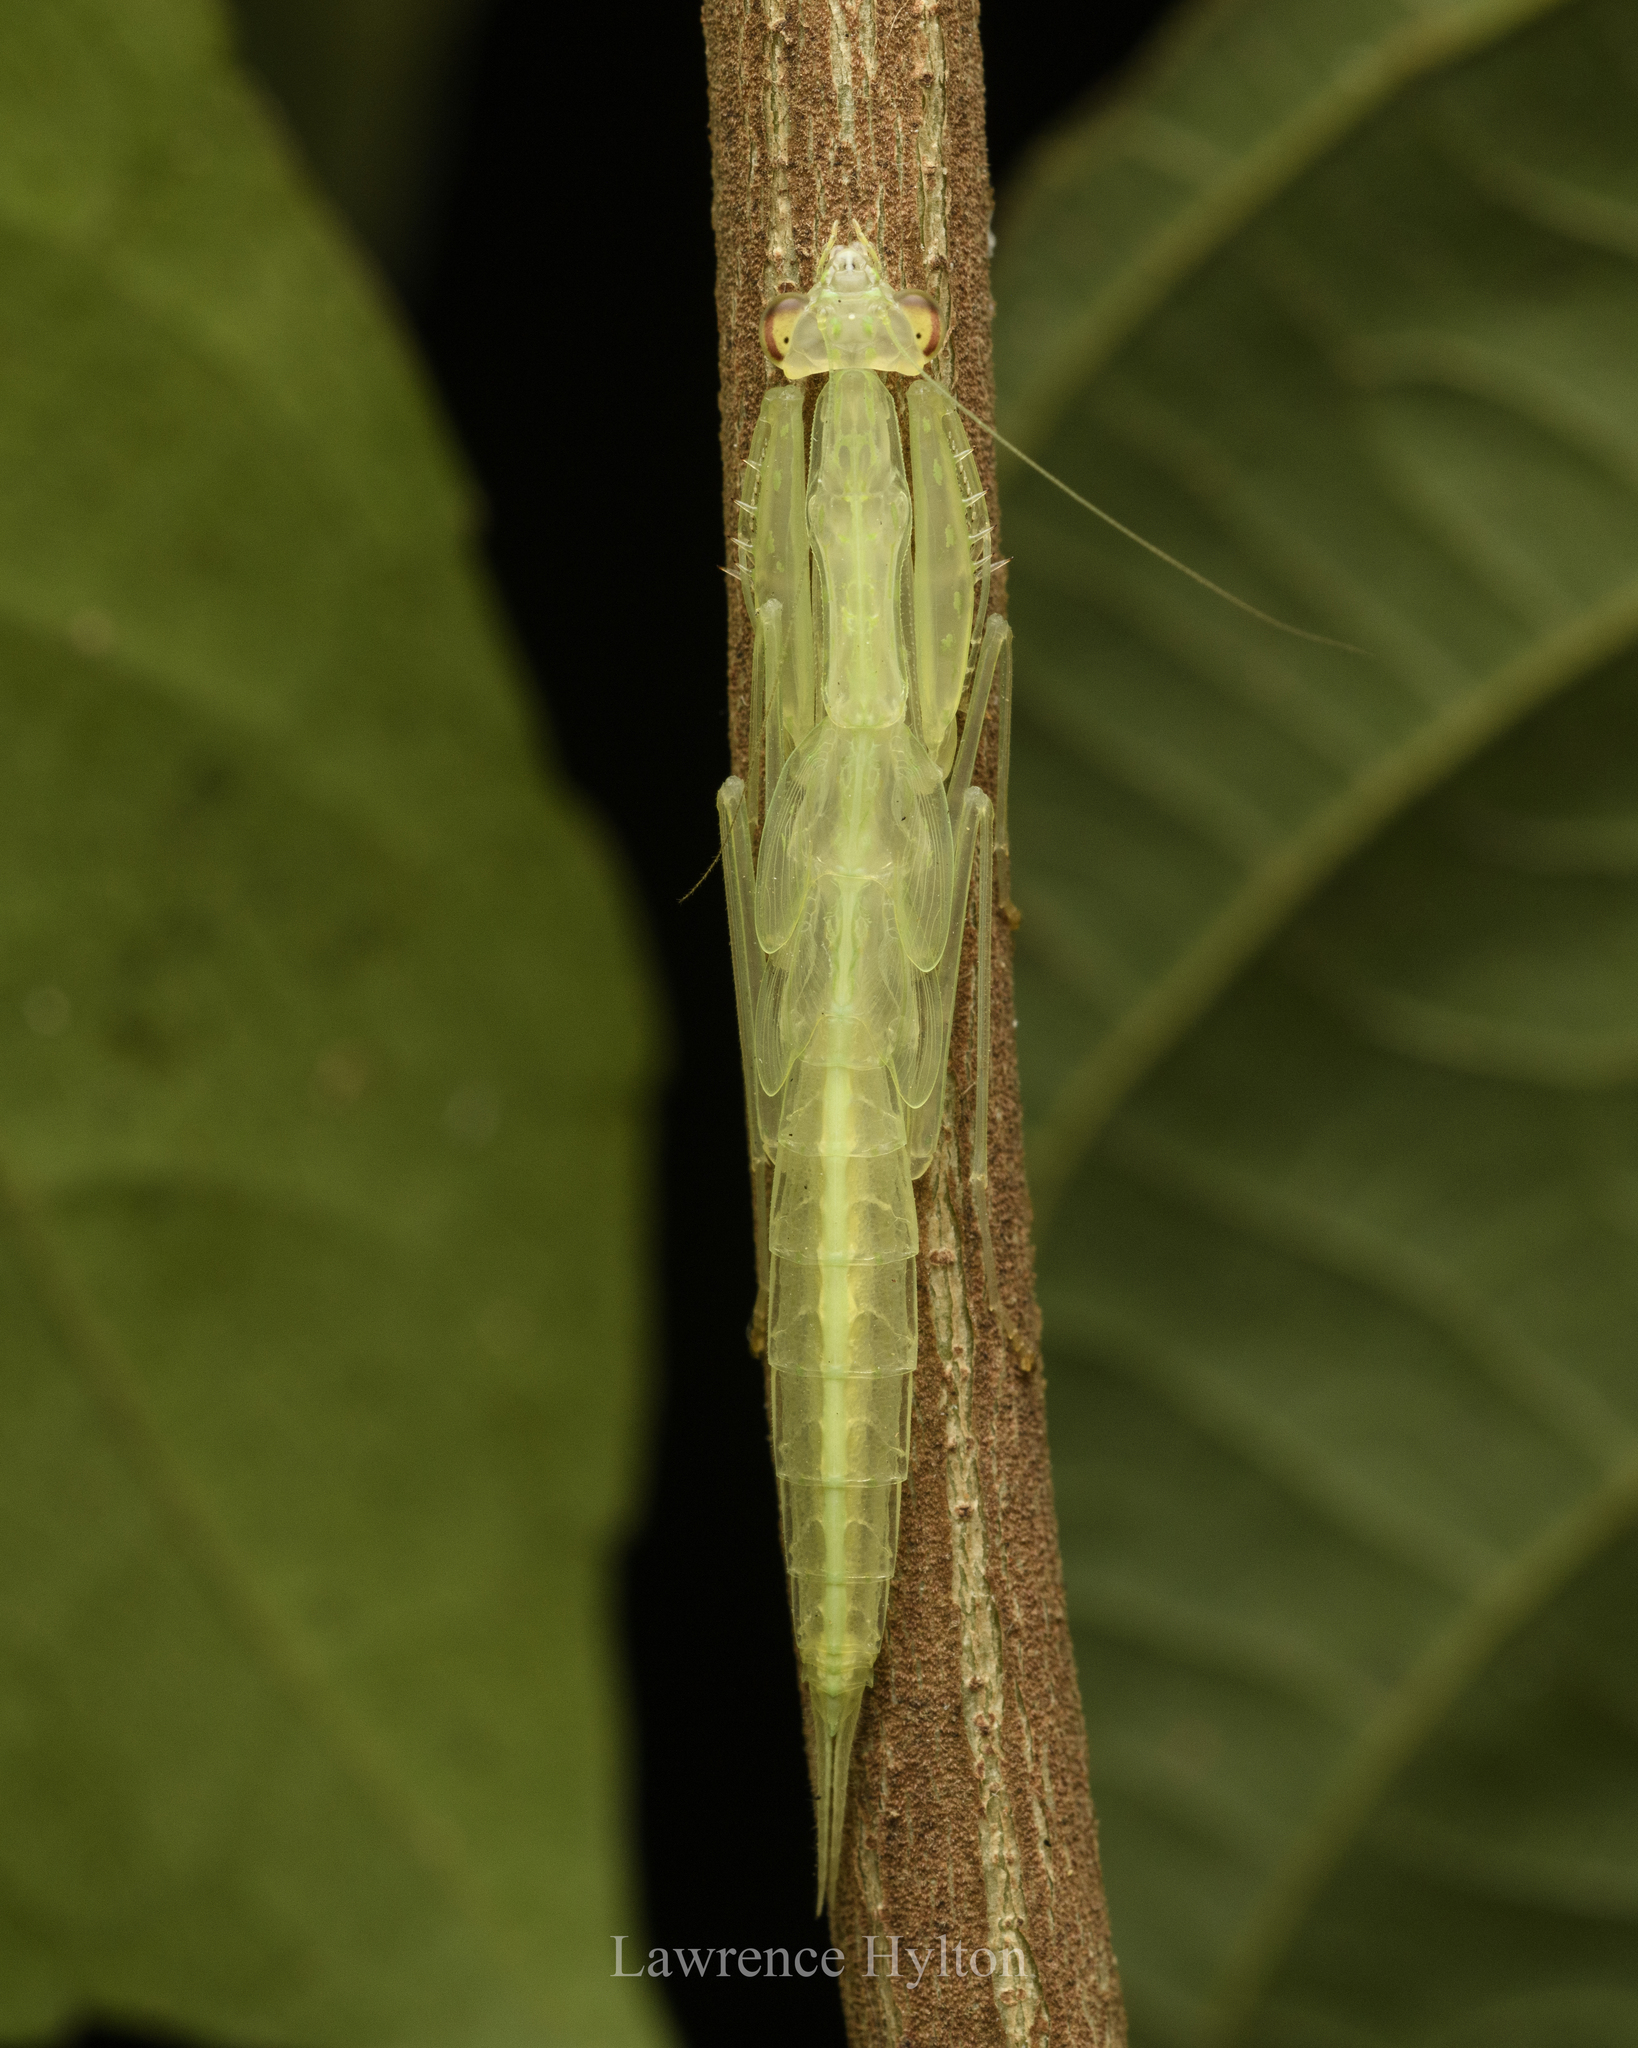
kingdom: Animalia
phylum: Arthropoda
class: Insecta
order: Mantodea
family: Nanomantidae
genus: Sinomantis
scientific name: Sinomantis denticulata
